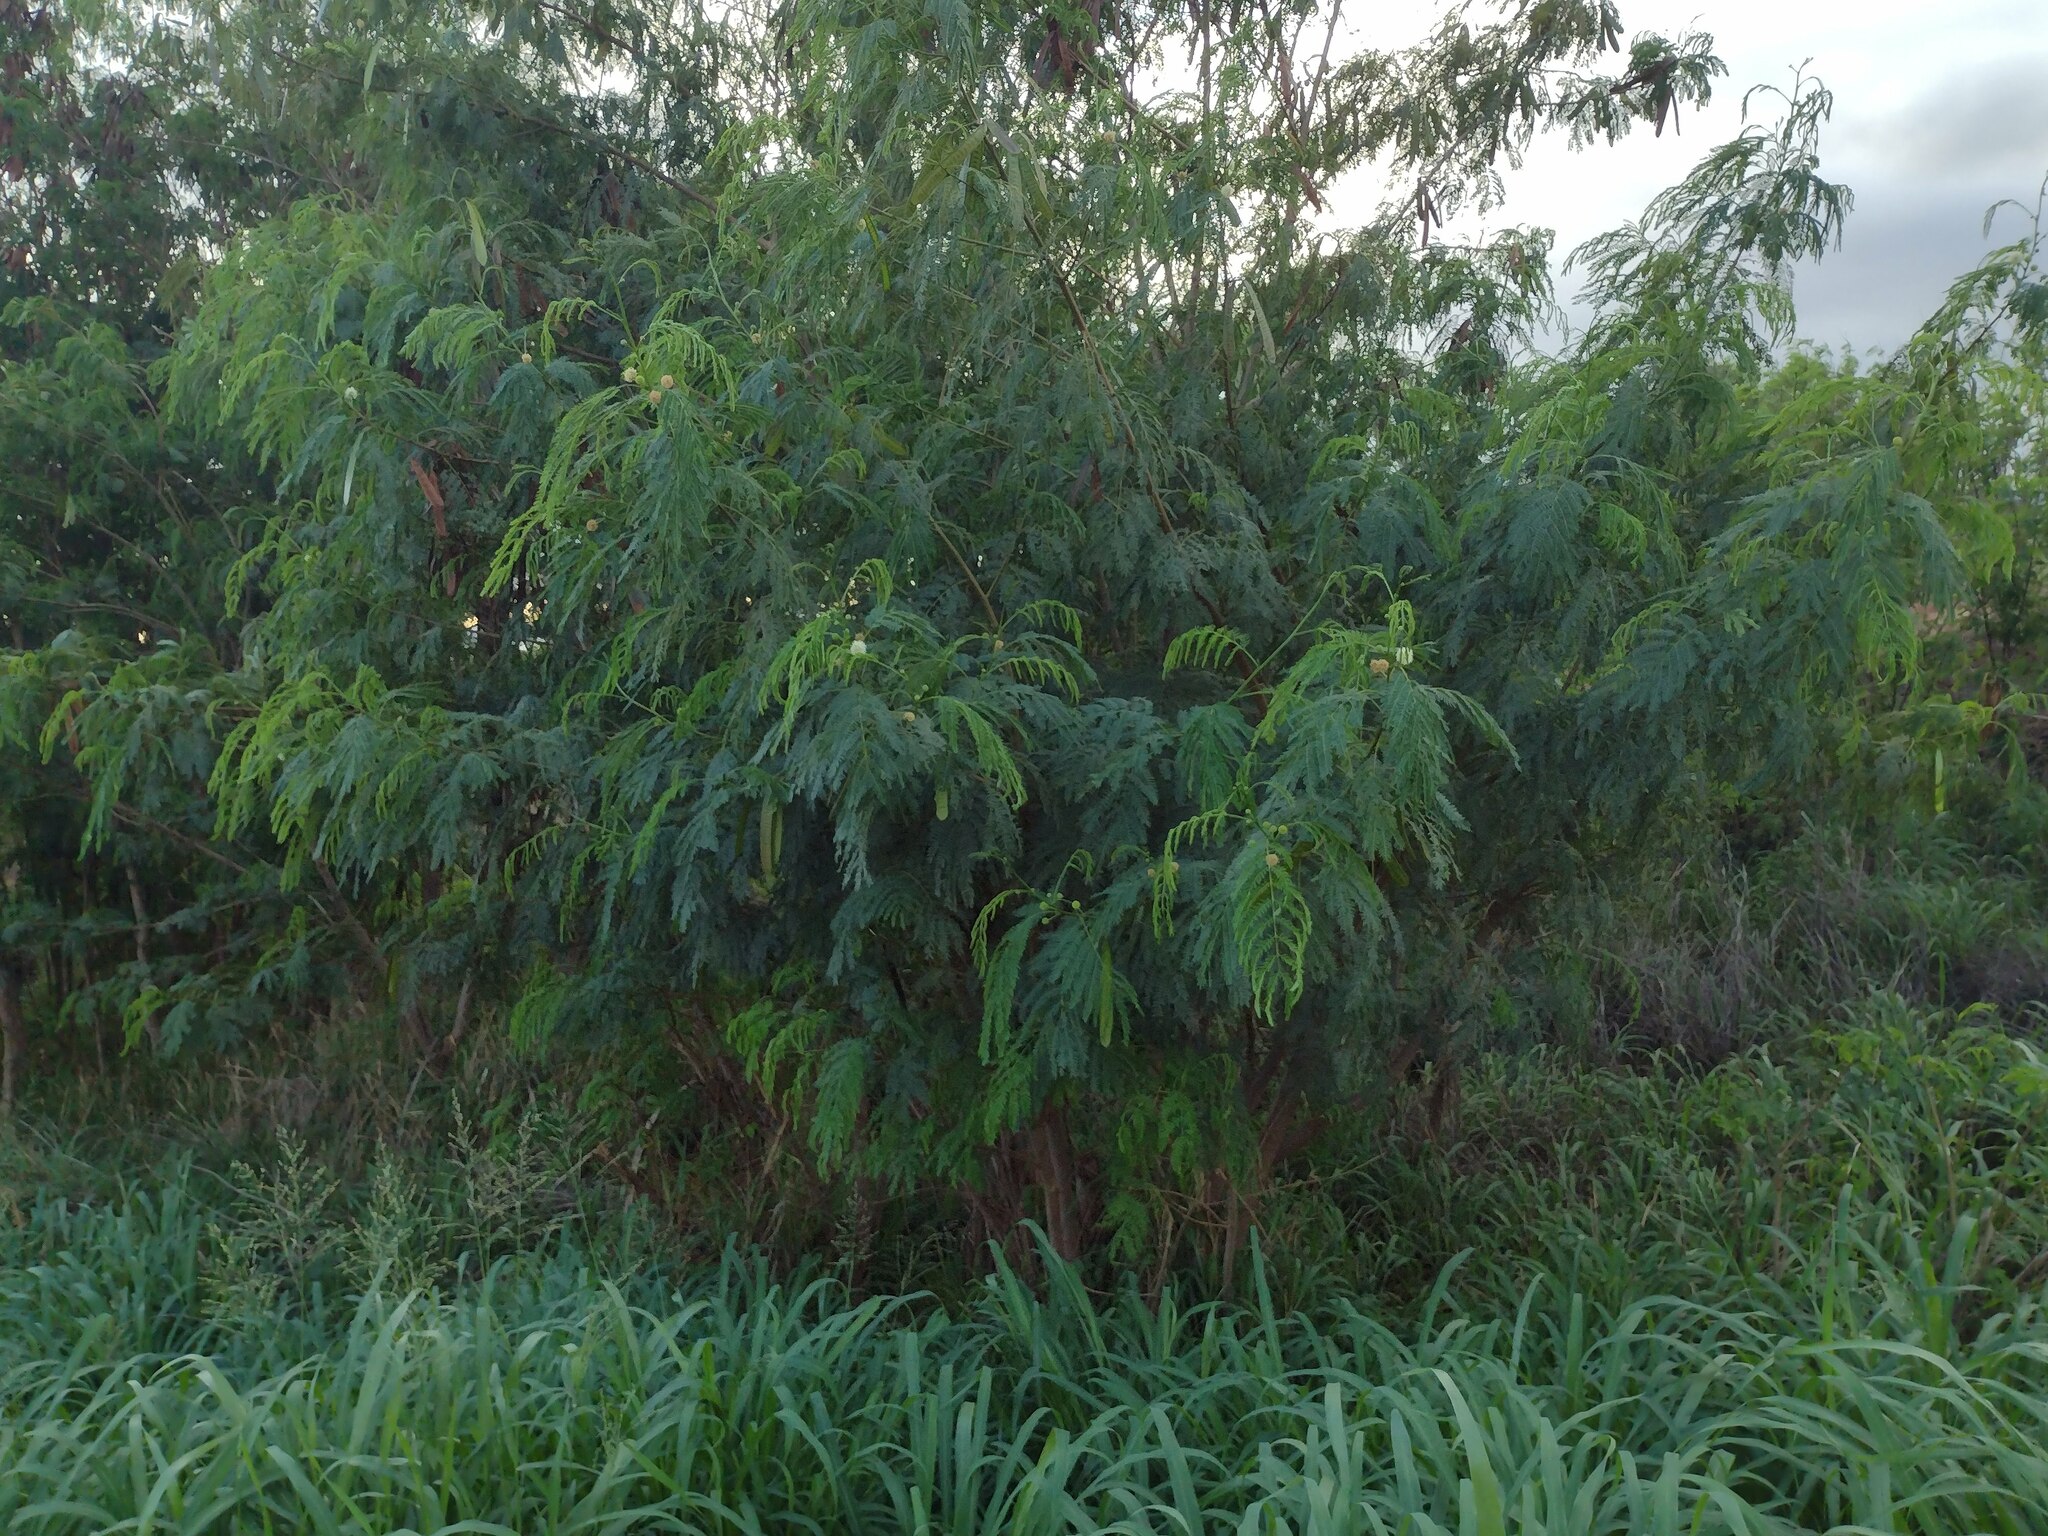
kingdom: Plantae
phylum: Tracheophyta
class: Magnoliopsida
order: Fabales
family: Fabaceae
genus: Leucaena
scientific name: Leucaena leucocephala
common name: White leadtree
